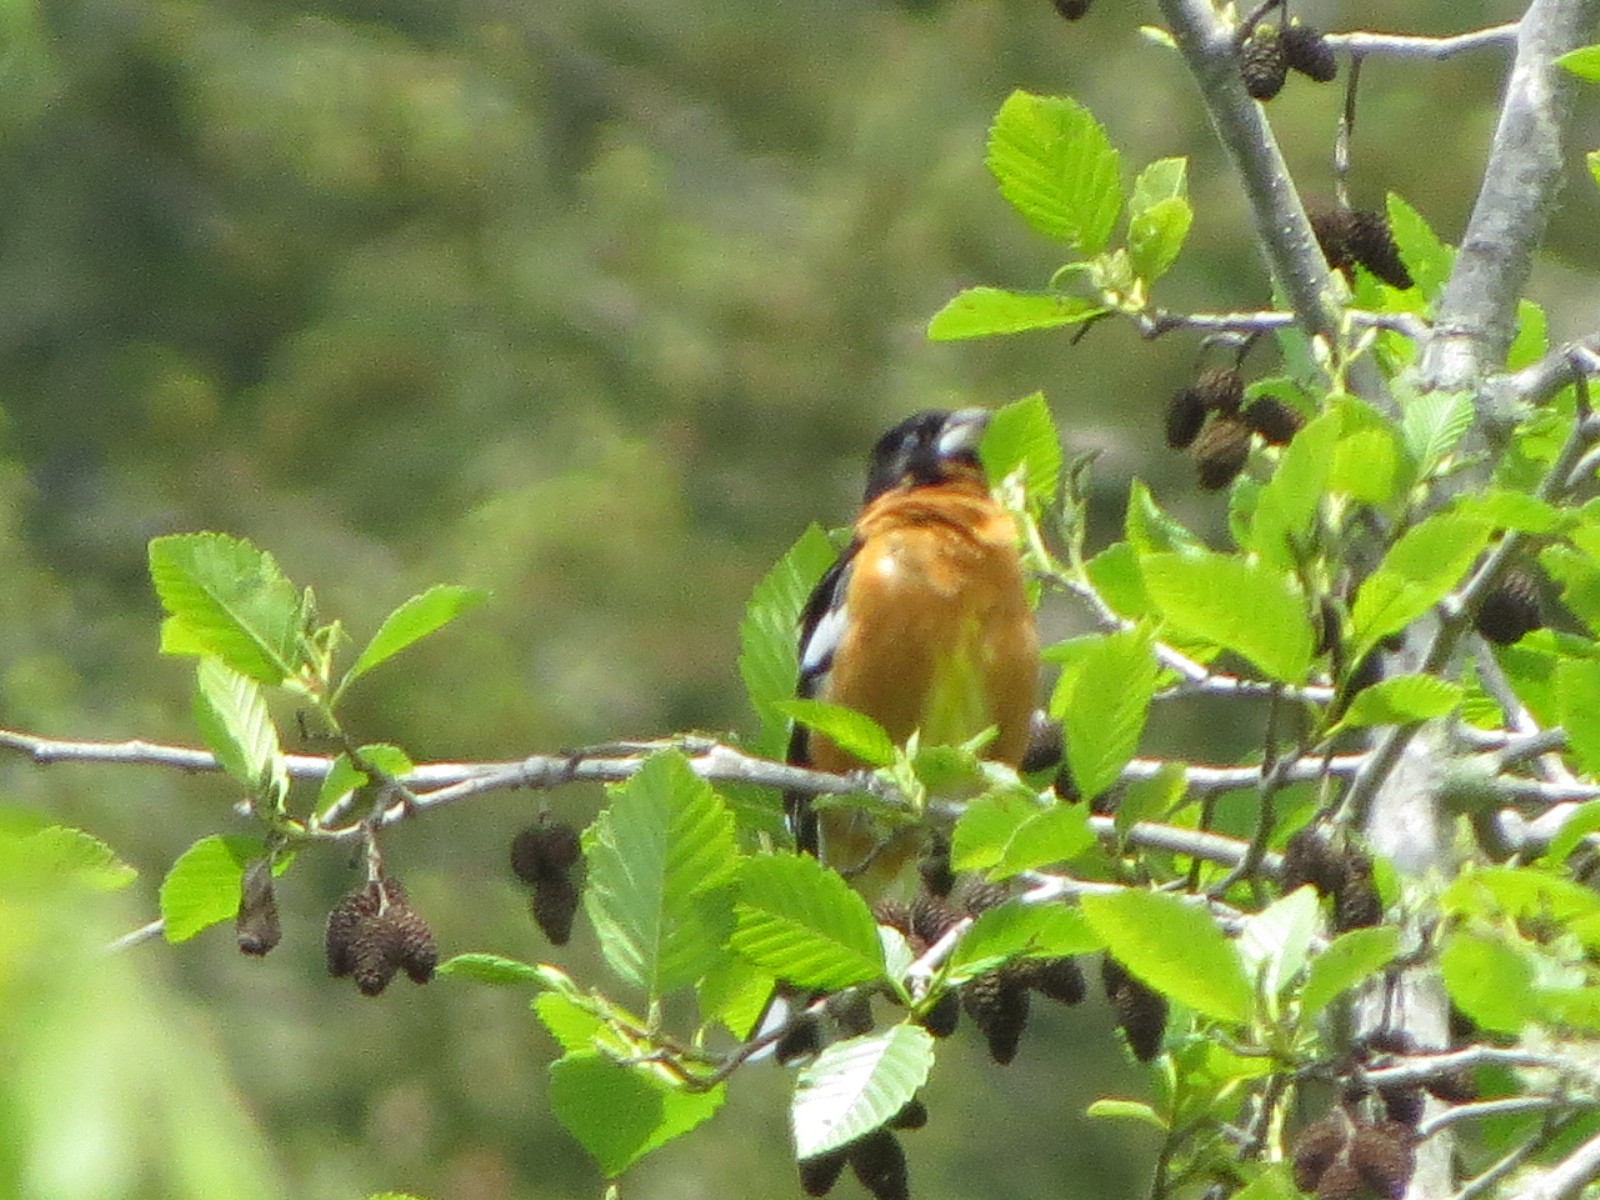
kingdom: Animalia
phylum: Chordata
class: Aves
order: Passeriformes
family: Cardinalidae
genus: Pheucticus
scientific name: Pheucticus melanocephalus
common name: Black-headed grosbeak
